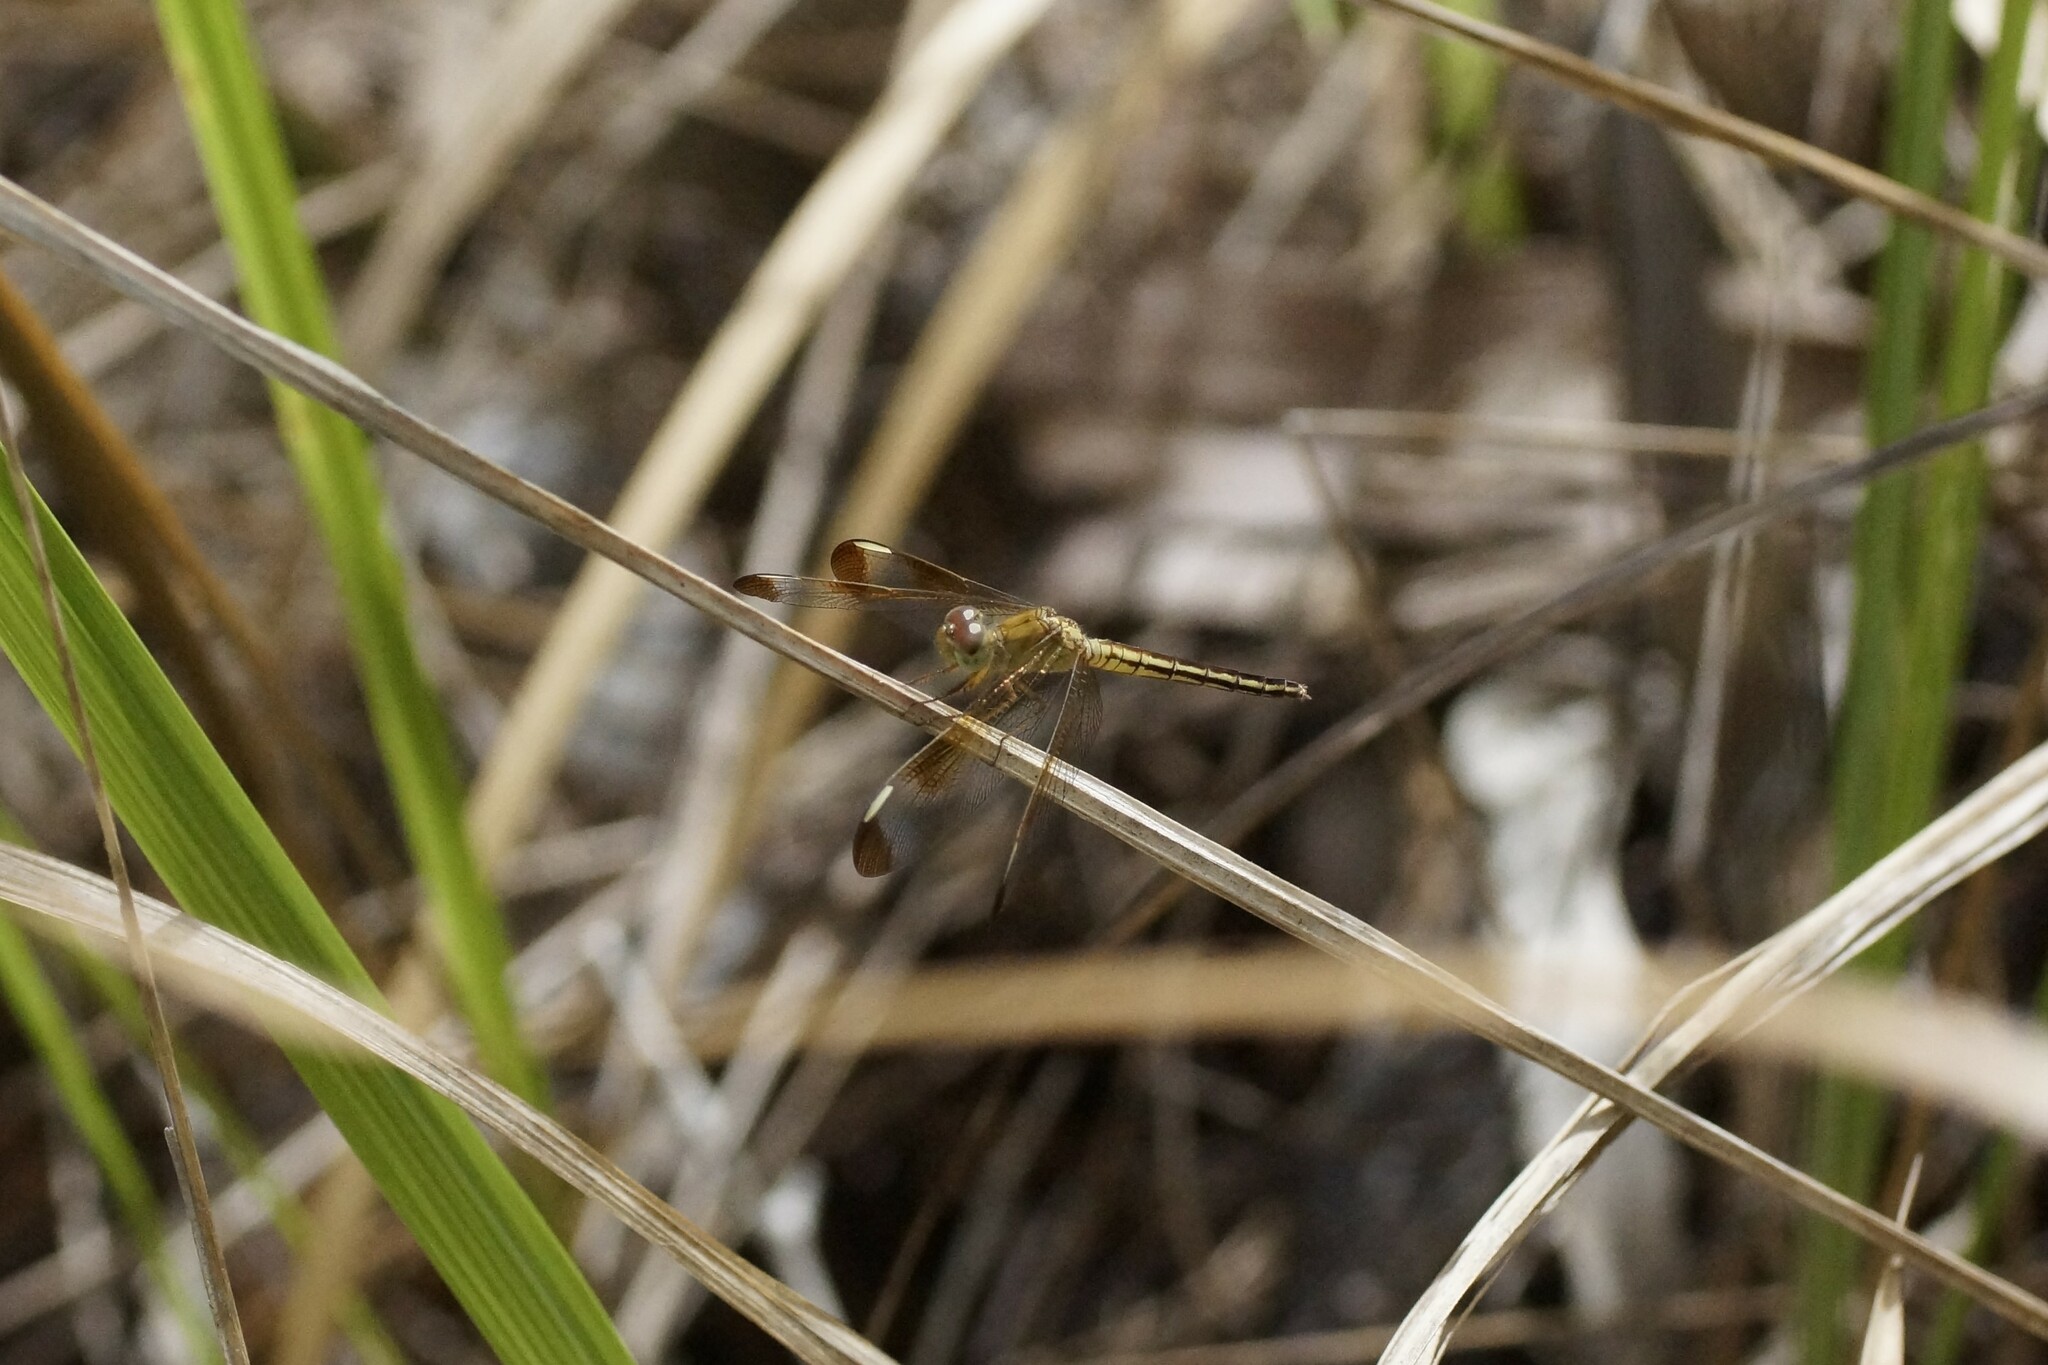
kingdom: Animalia
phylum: Arthropoda
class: Insecta
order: Odonata
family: Libellulidae
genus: Neurothemis
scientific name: Neurothemis stigmatizans
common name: Painted grasshawk
